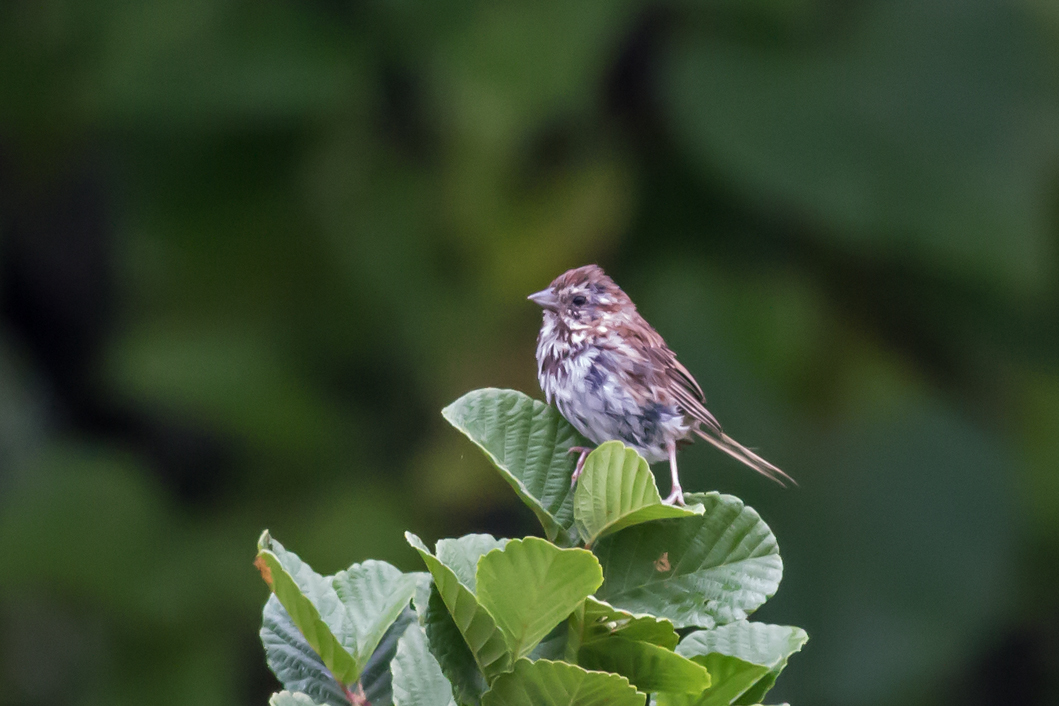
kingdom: Animalia
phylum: Chordata
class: Aves
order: Passeriformes
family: Passerellidae
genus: Melospiza
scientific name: Melospiza melodia
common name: Song sparrow
